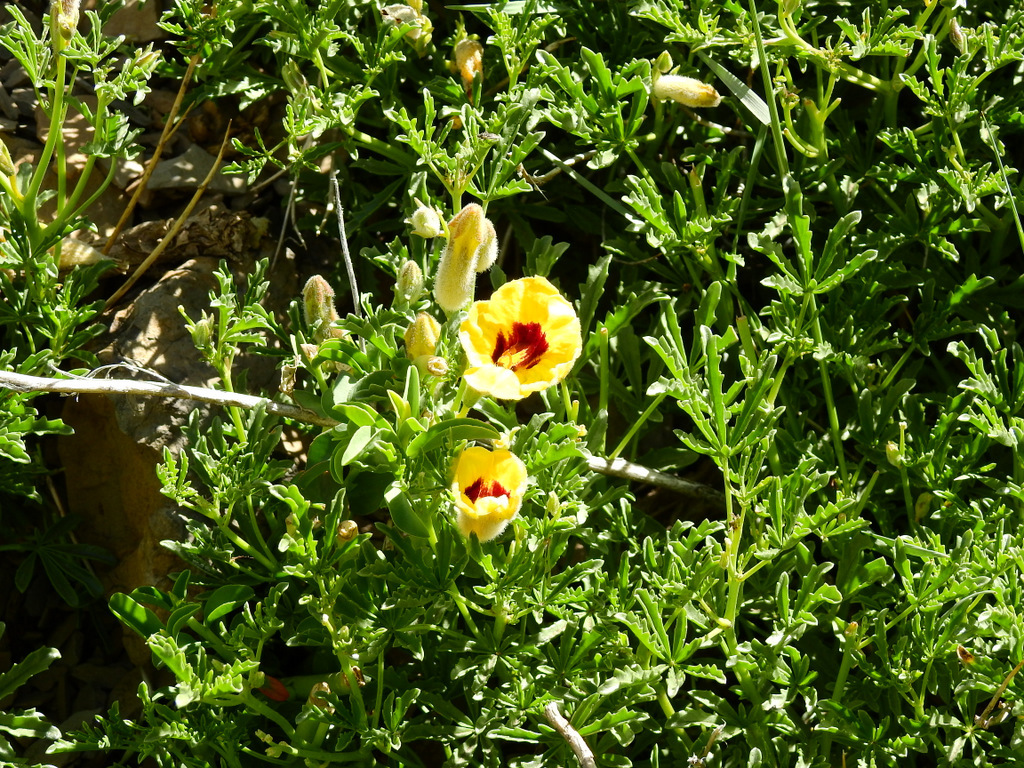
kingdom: Plantae
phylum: Tracheophyta
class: Magnoliopsida
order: Lamiales
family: Bignoniaceae
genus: Argylia
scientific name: Argylia bustillosii
